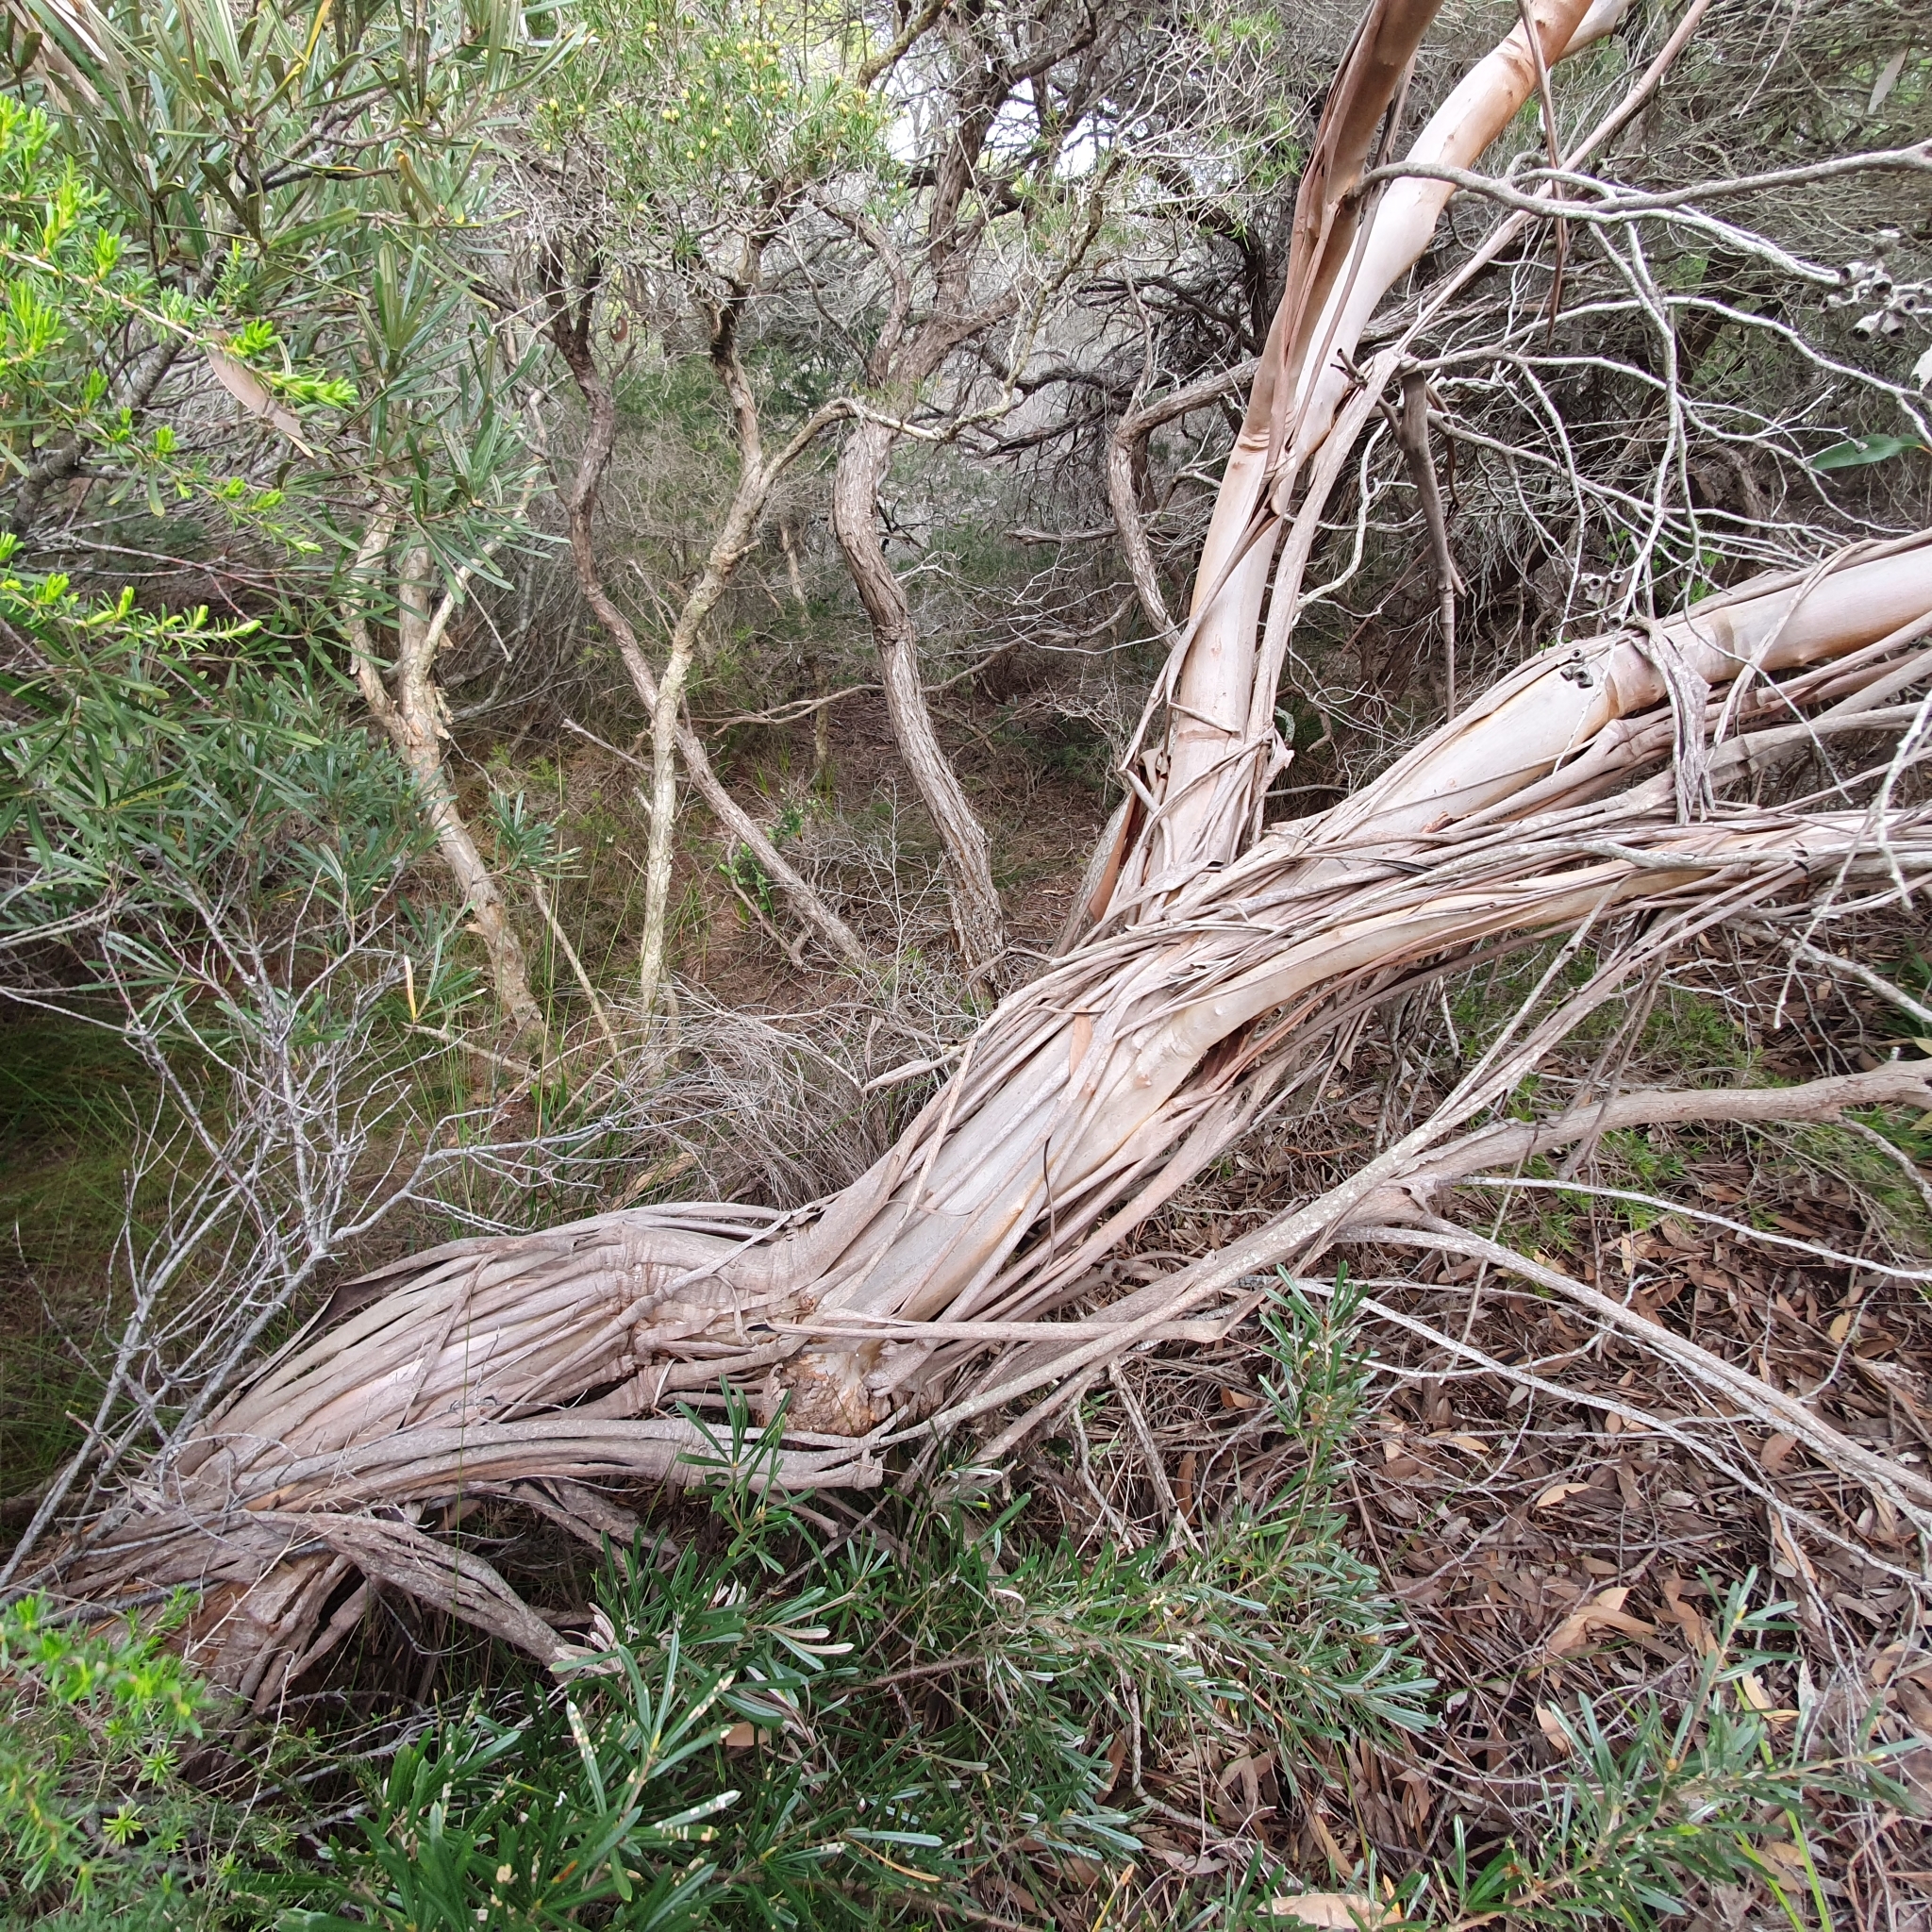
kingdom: Plantae
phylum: Tracheophyta
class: Magnoliopsida
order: Myrtales
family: Myrtaceae
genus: Eucalyptus
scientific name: Eucalyptus burgessiana
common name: Falconbridge mallee-ash
